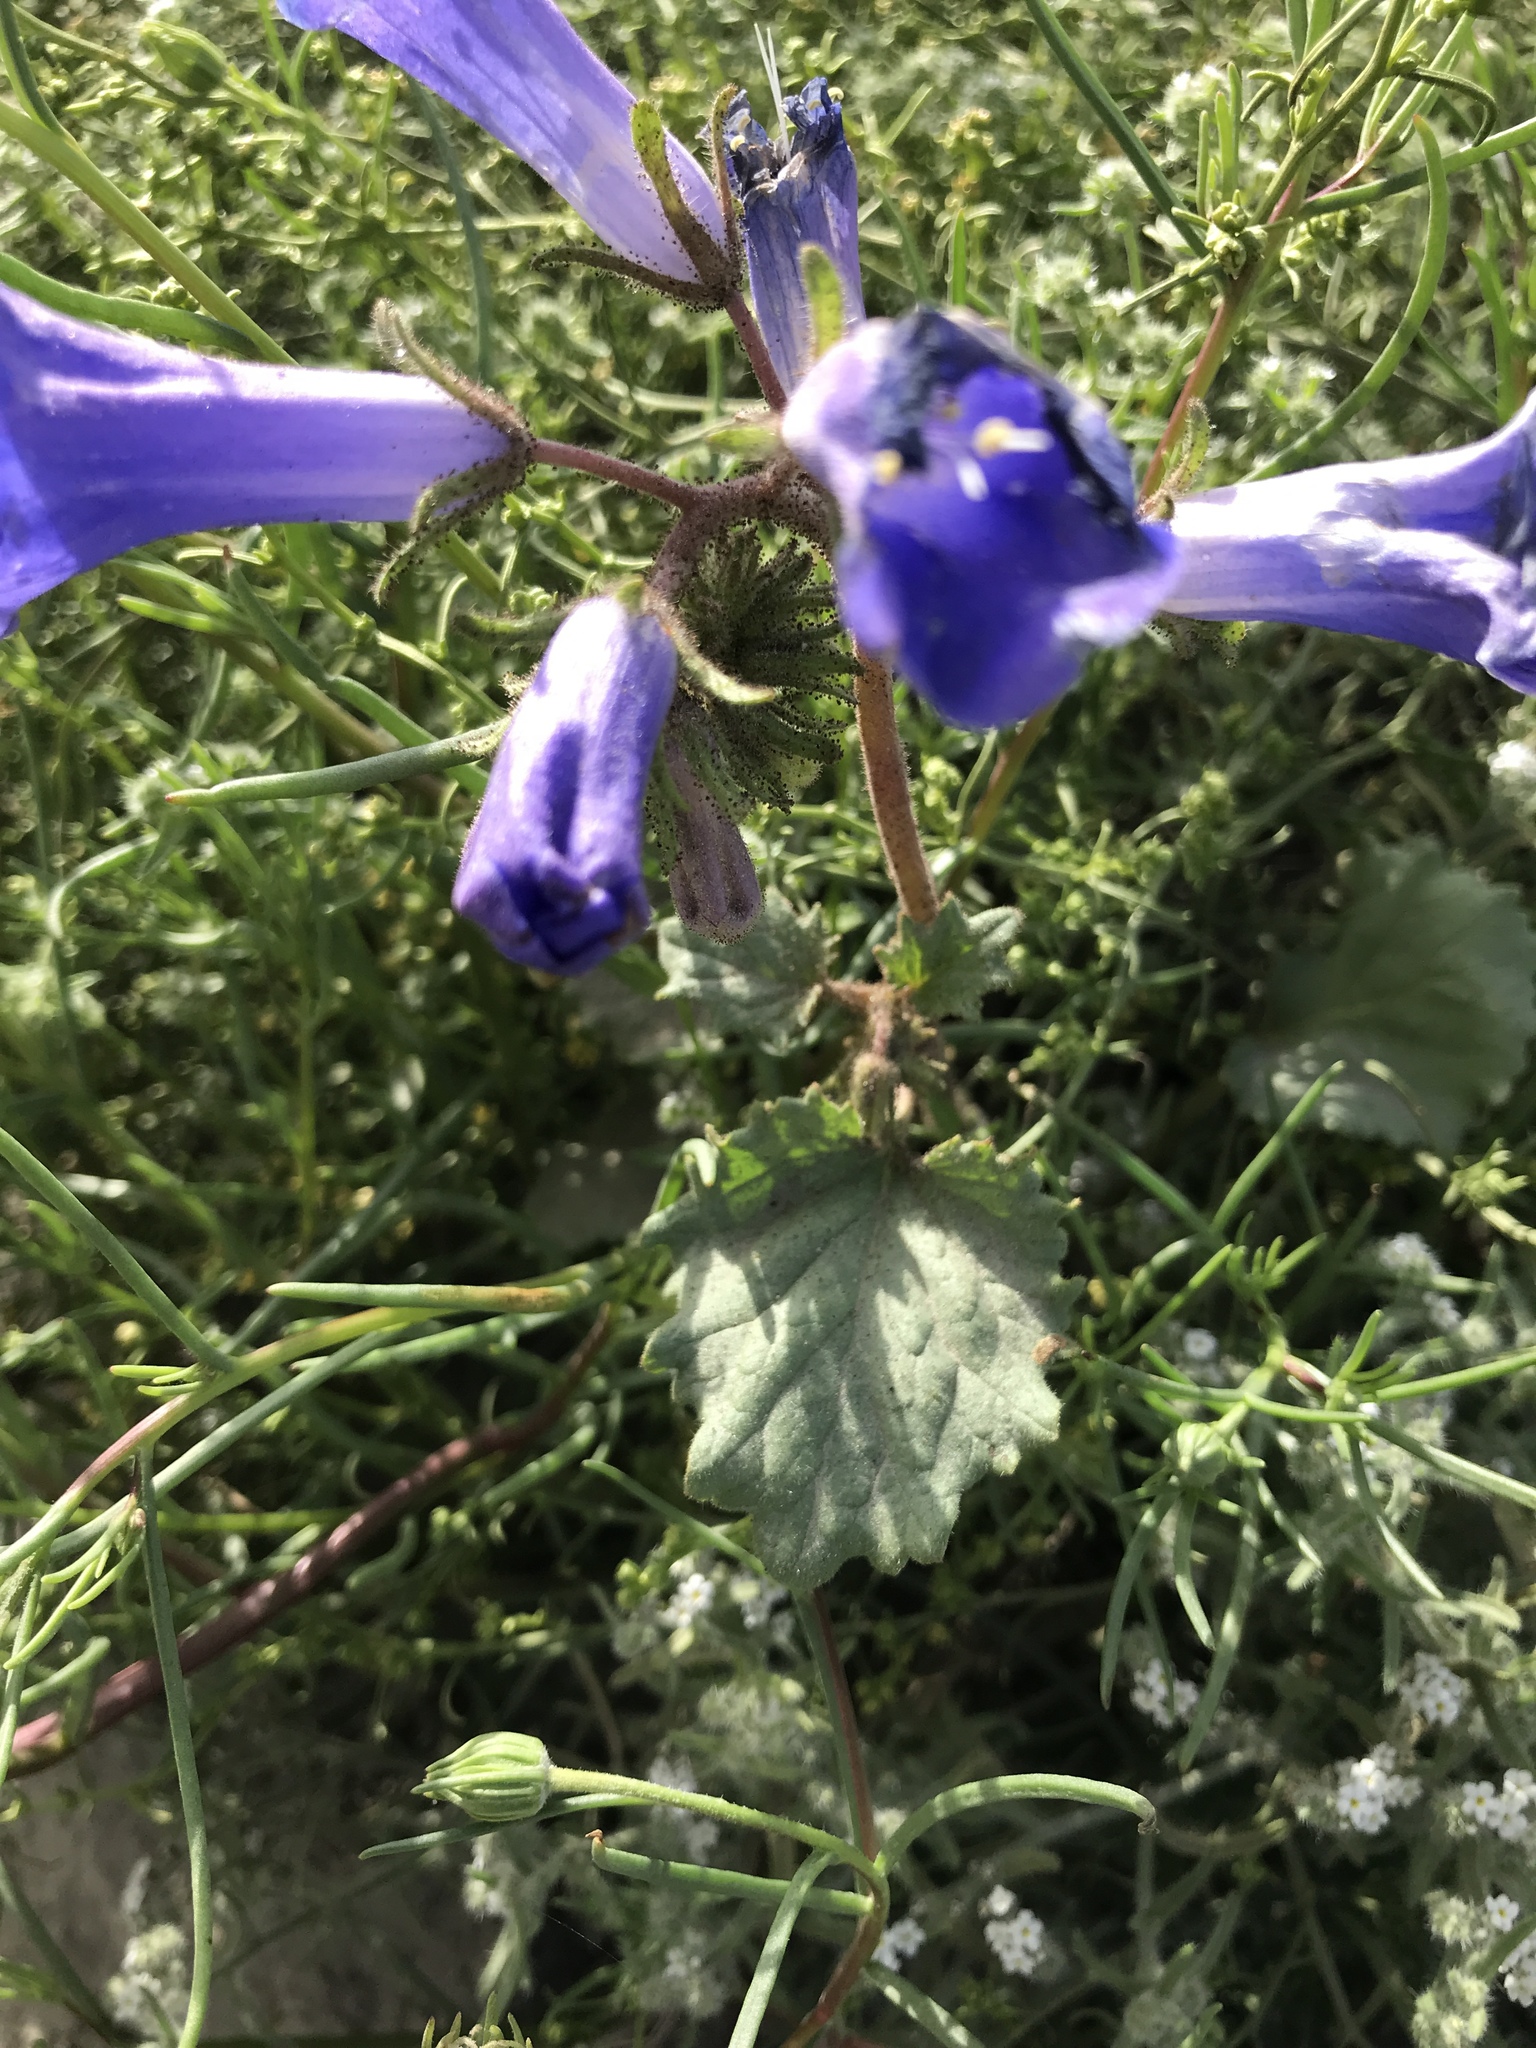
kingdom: Plantae
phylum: Tracheophyta
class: Magnoliopsida
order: Boraginales
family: Hydrophyllaceae
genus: Phacelia
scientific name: Phacelia campanularia
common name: California bluebell
